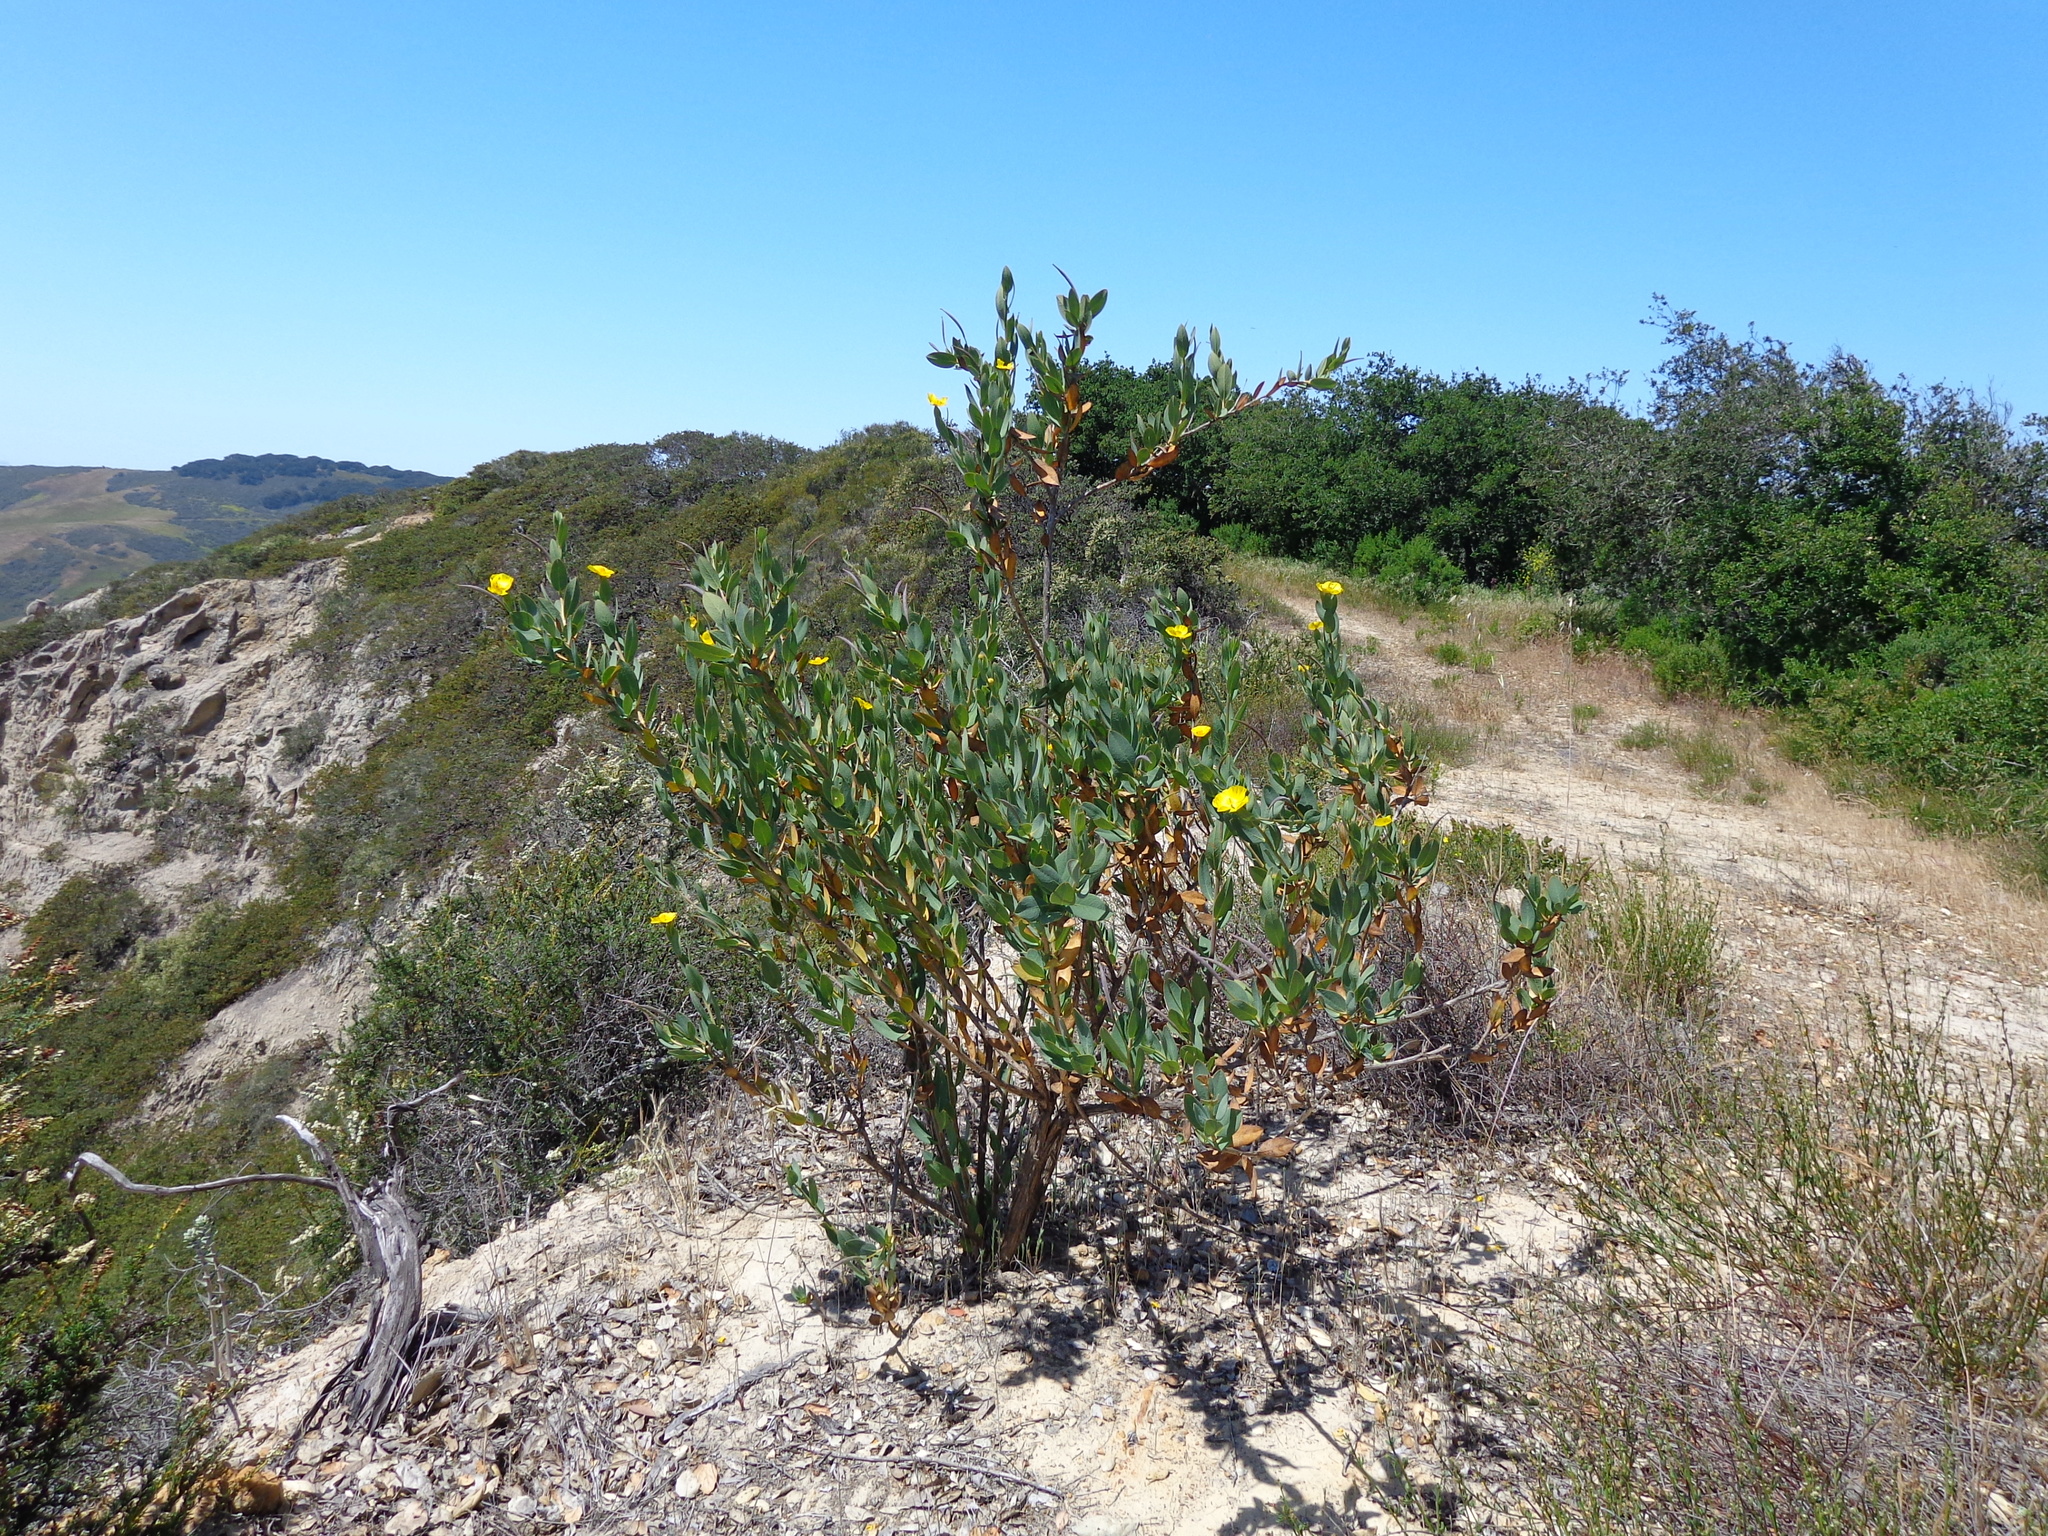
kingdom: Plantae
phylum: Tracheophyta
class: Magnoliopsida
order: Ranunculales
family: Papaveraceae
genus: Dendromecon
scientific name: Dendromecon rigida
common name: Tree poppy
